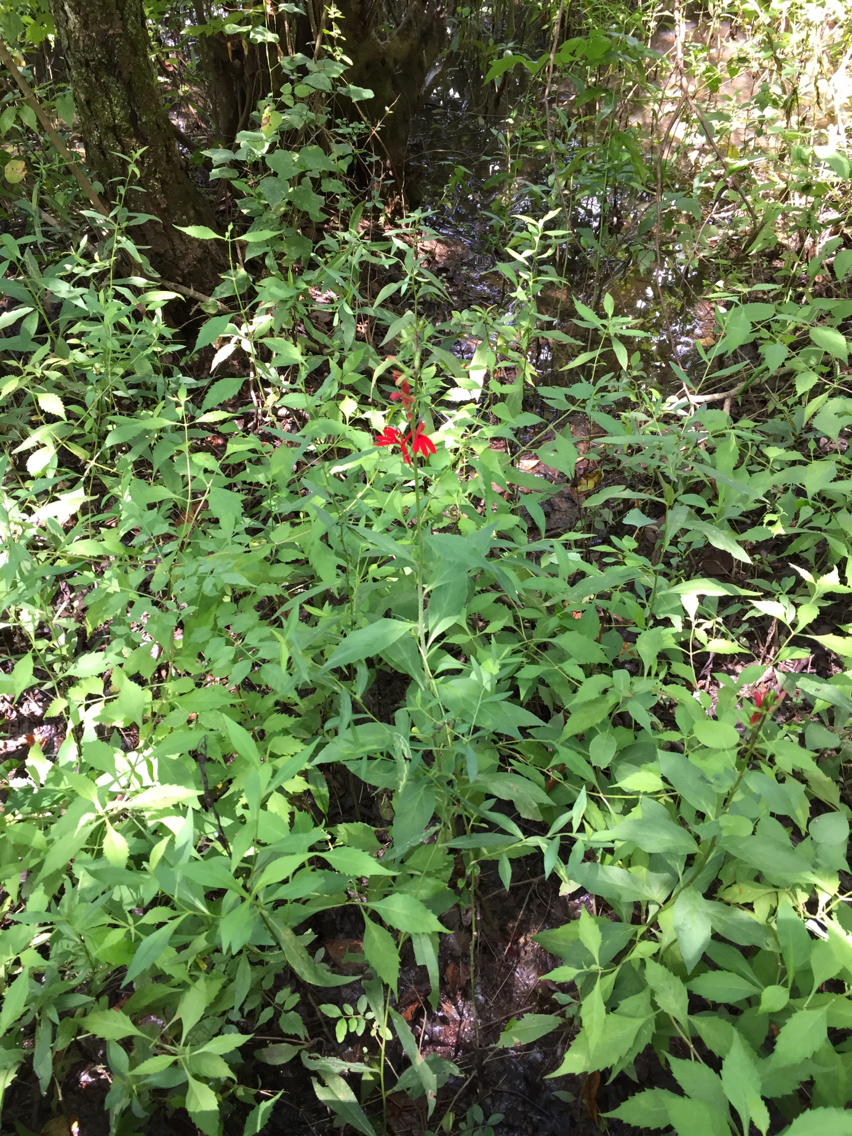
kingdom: Plantae
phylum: Tracheophyta
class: Magnoliopsida
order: Asterales
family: Campanulaceae
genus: Lobelia
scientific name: Lobelia cardinalis
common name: Cardinal flower
